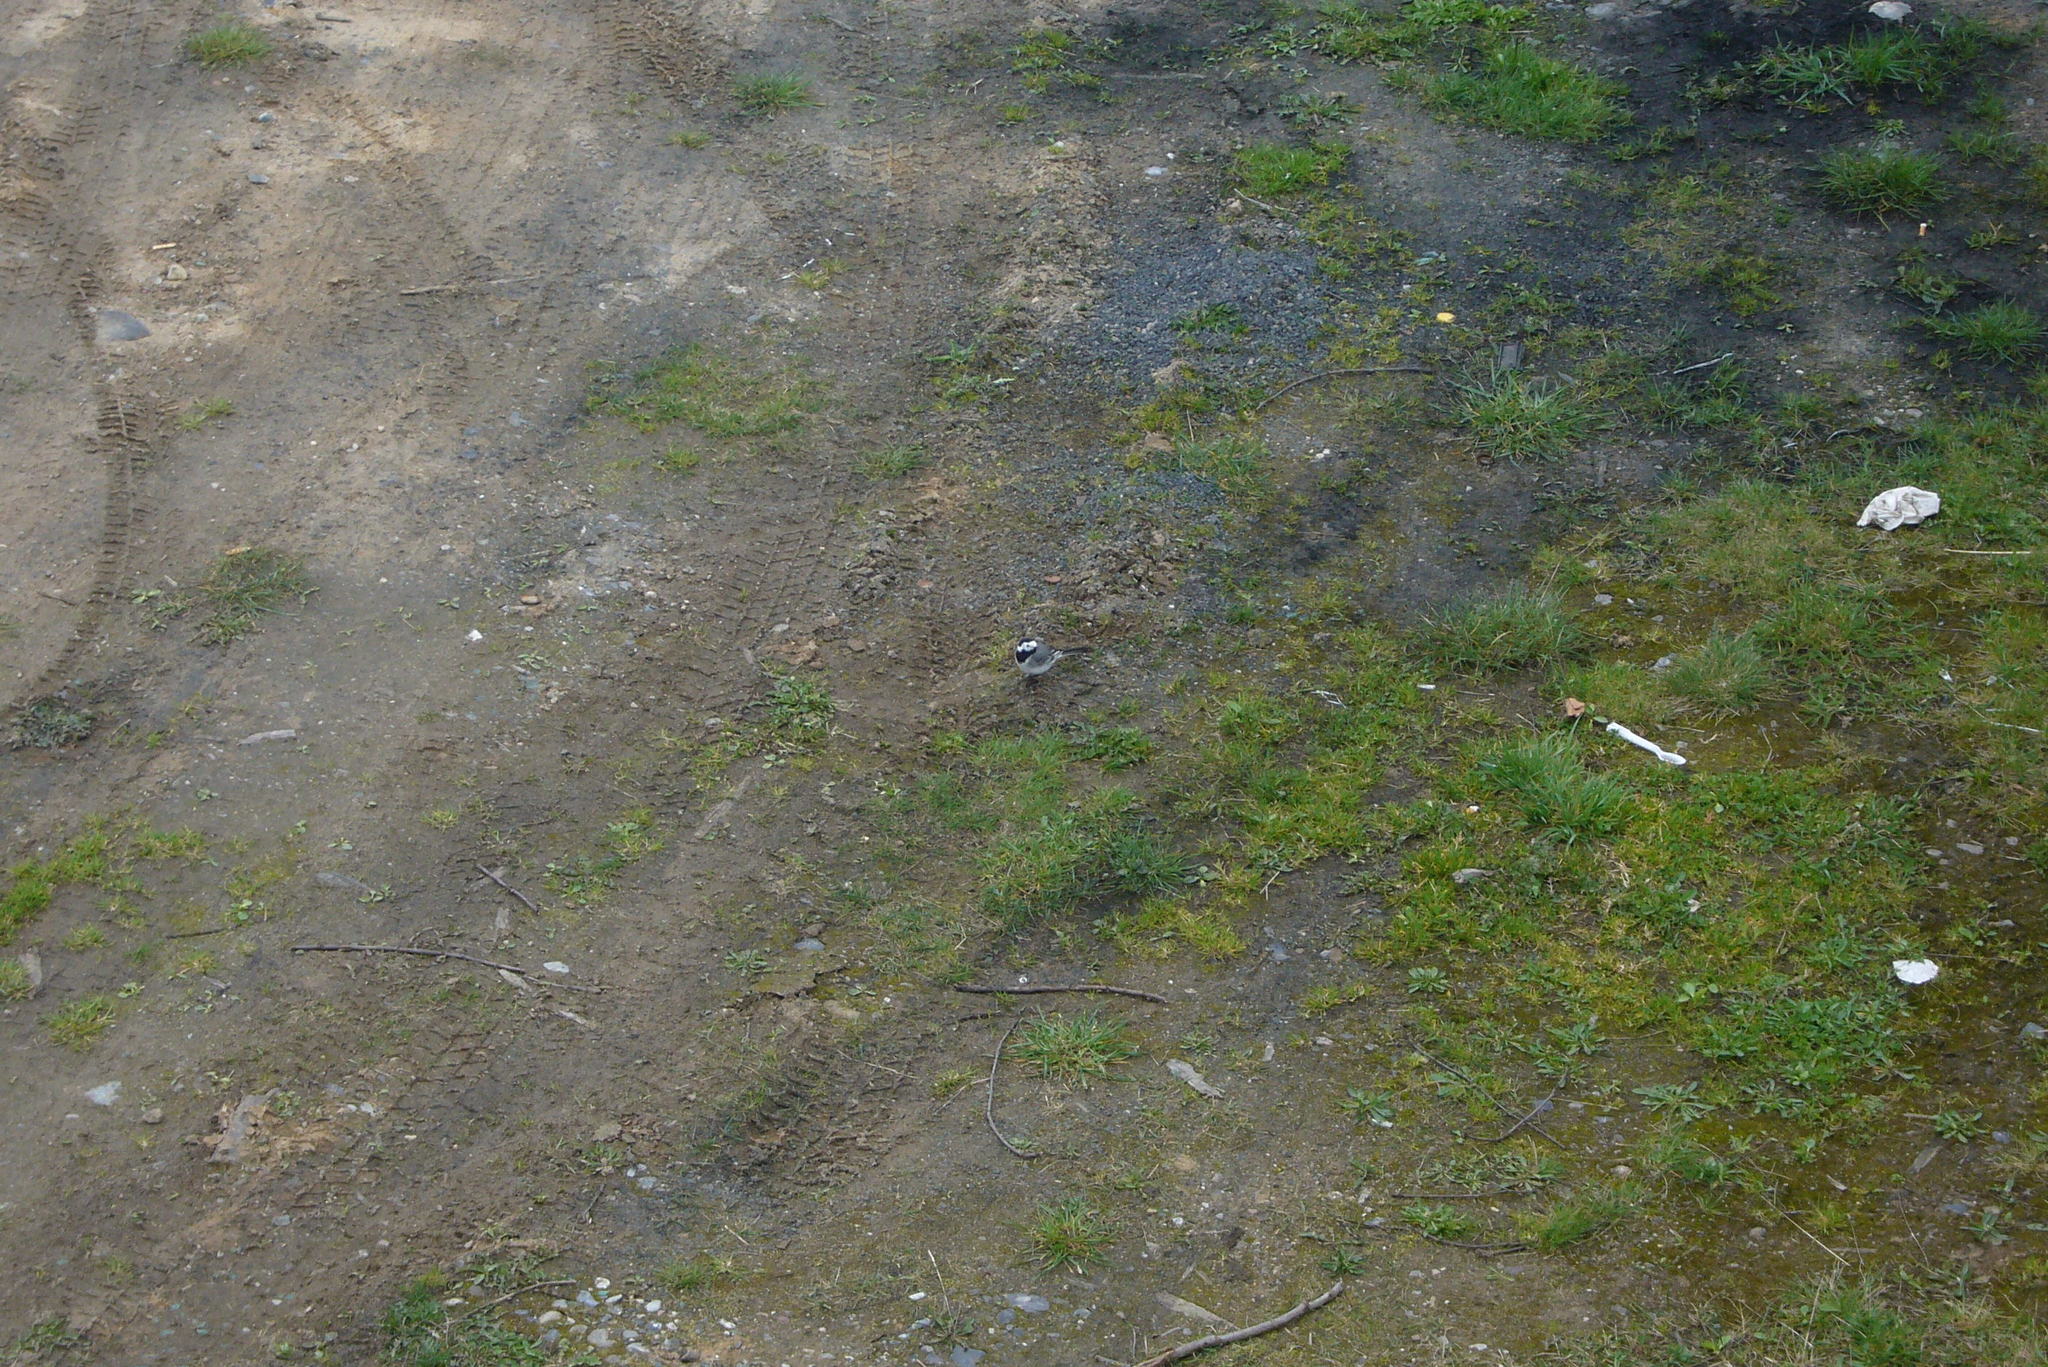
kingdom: Animalia
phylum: Chordata
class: Aves
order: Passeriformes
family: Motacillidae
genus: Motacilla
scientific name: Motacilla alba
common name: White wagtail
